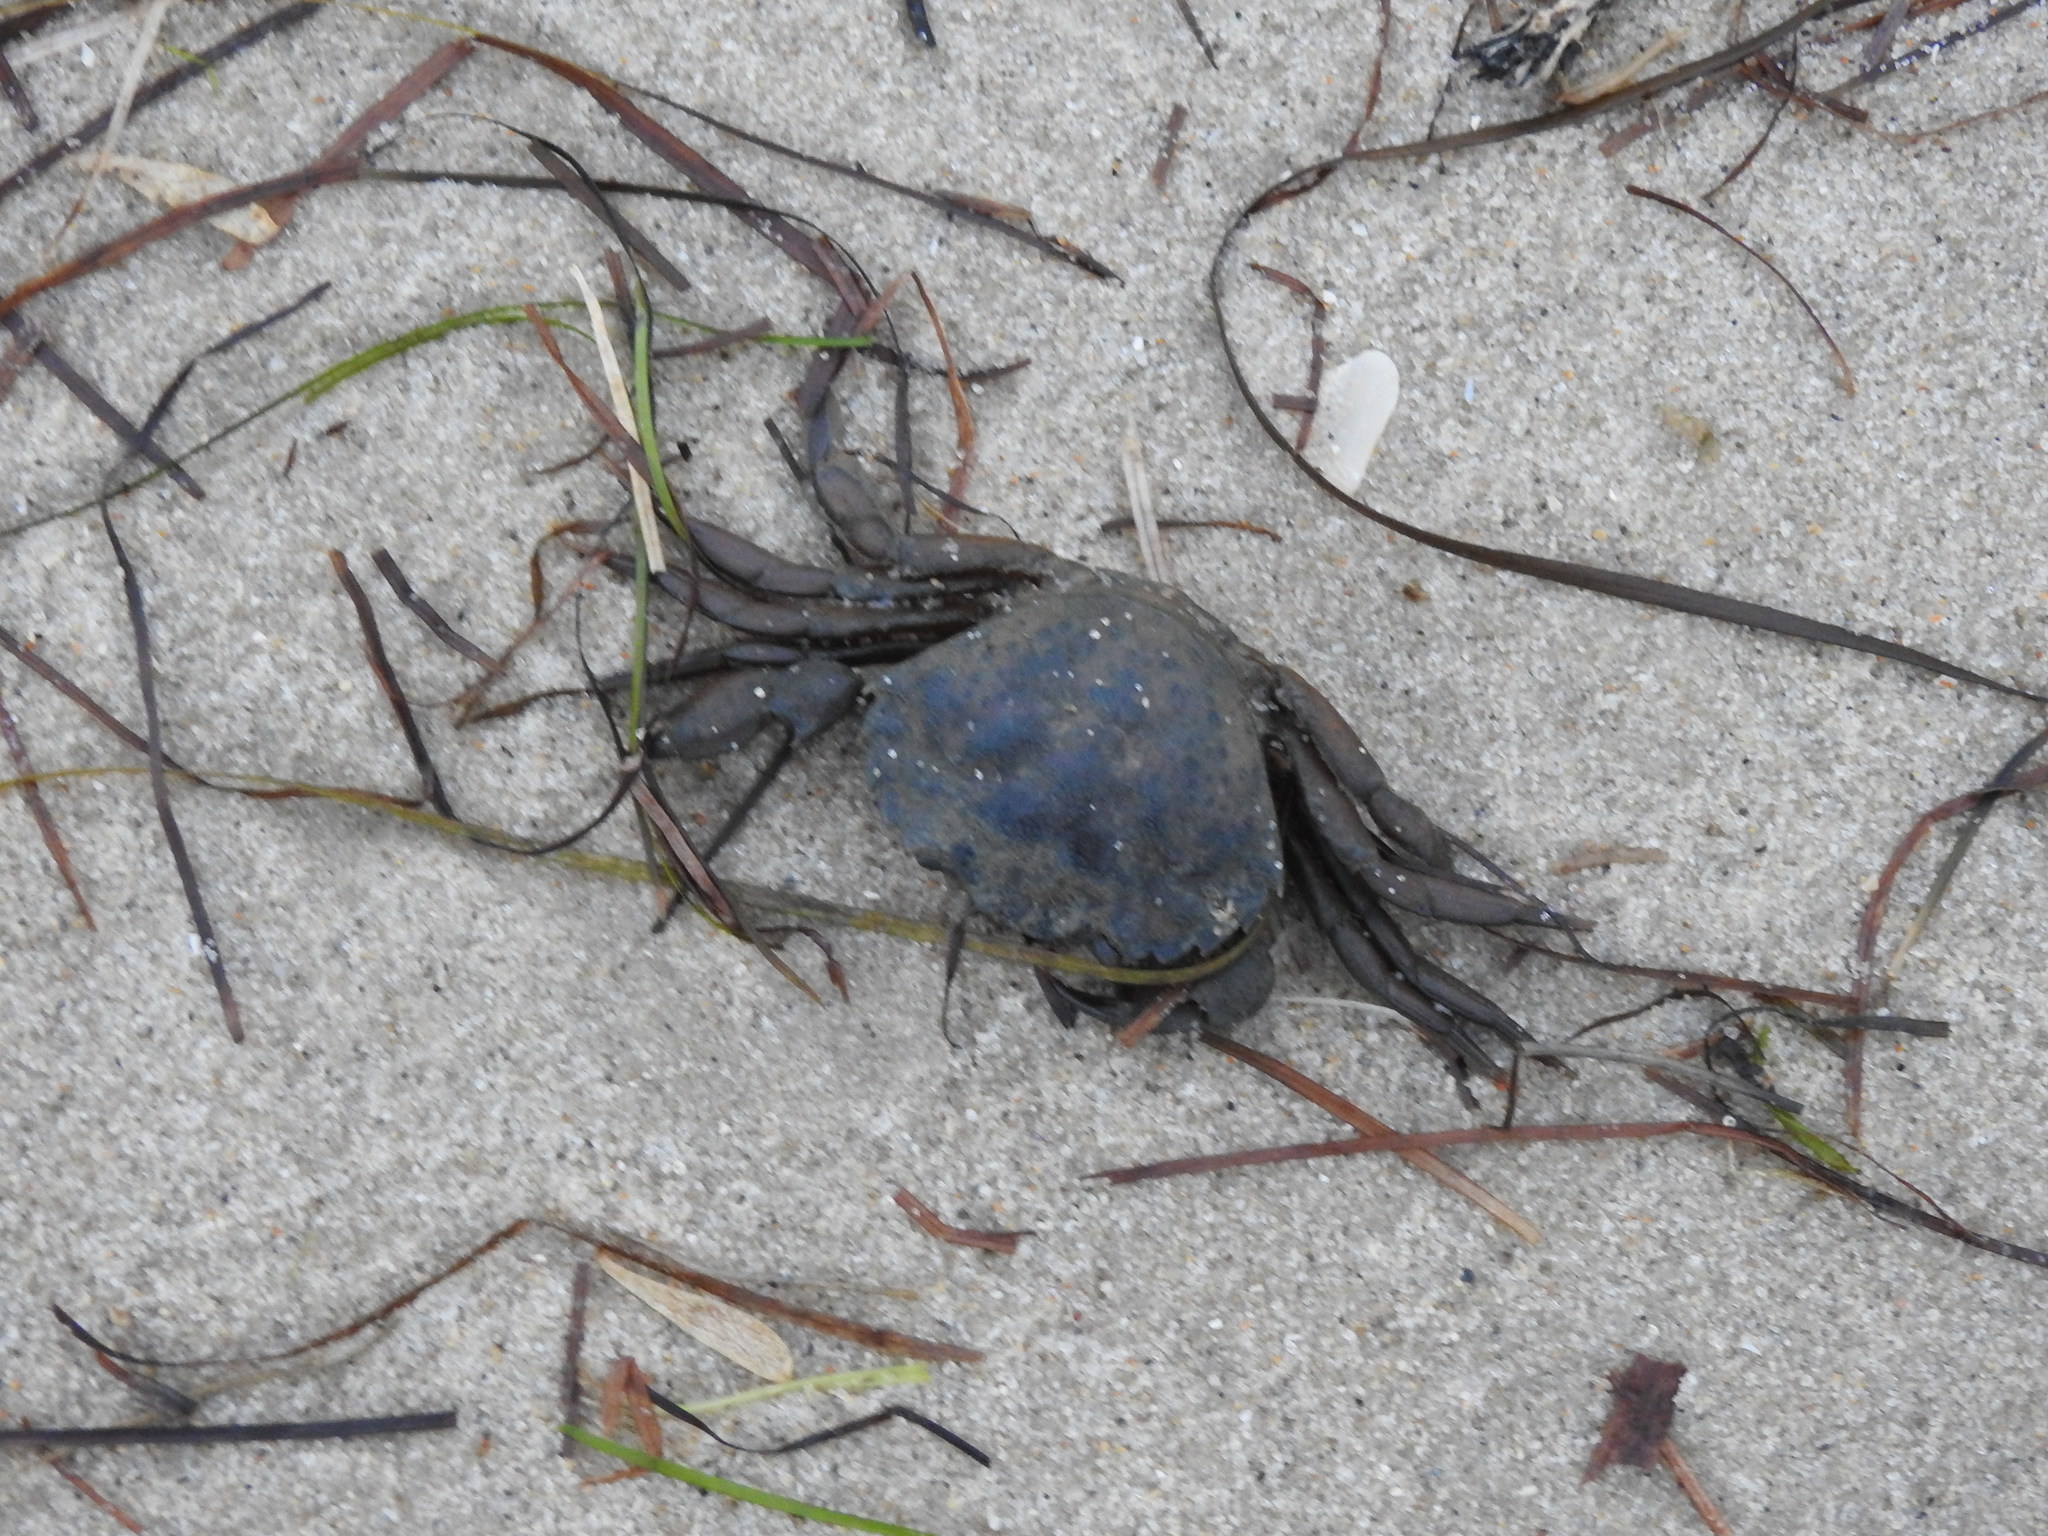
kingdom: Animalia
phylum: Arthropoda
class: Malacostraca
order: Decapoda
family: Carcinidae
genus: Carcinus
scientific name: Carcinus maenas
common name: European green crab
